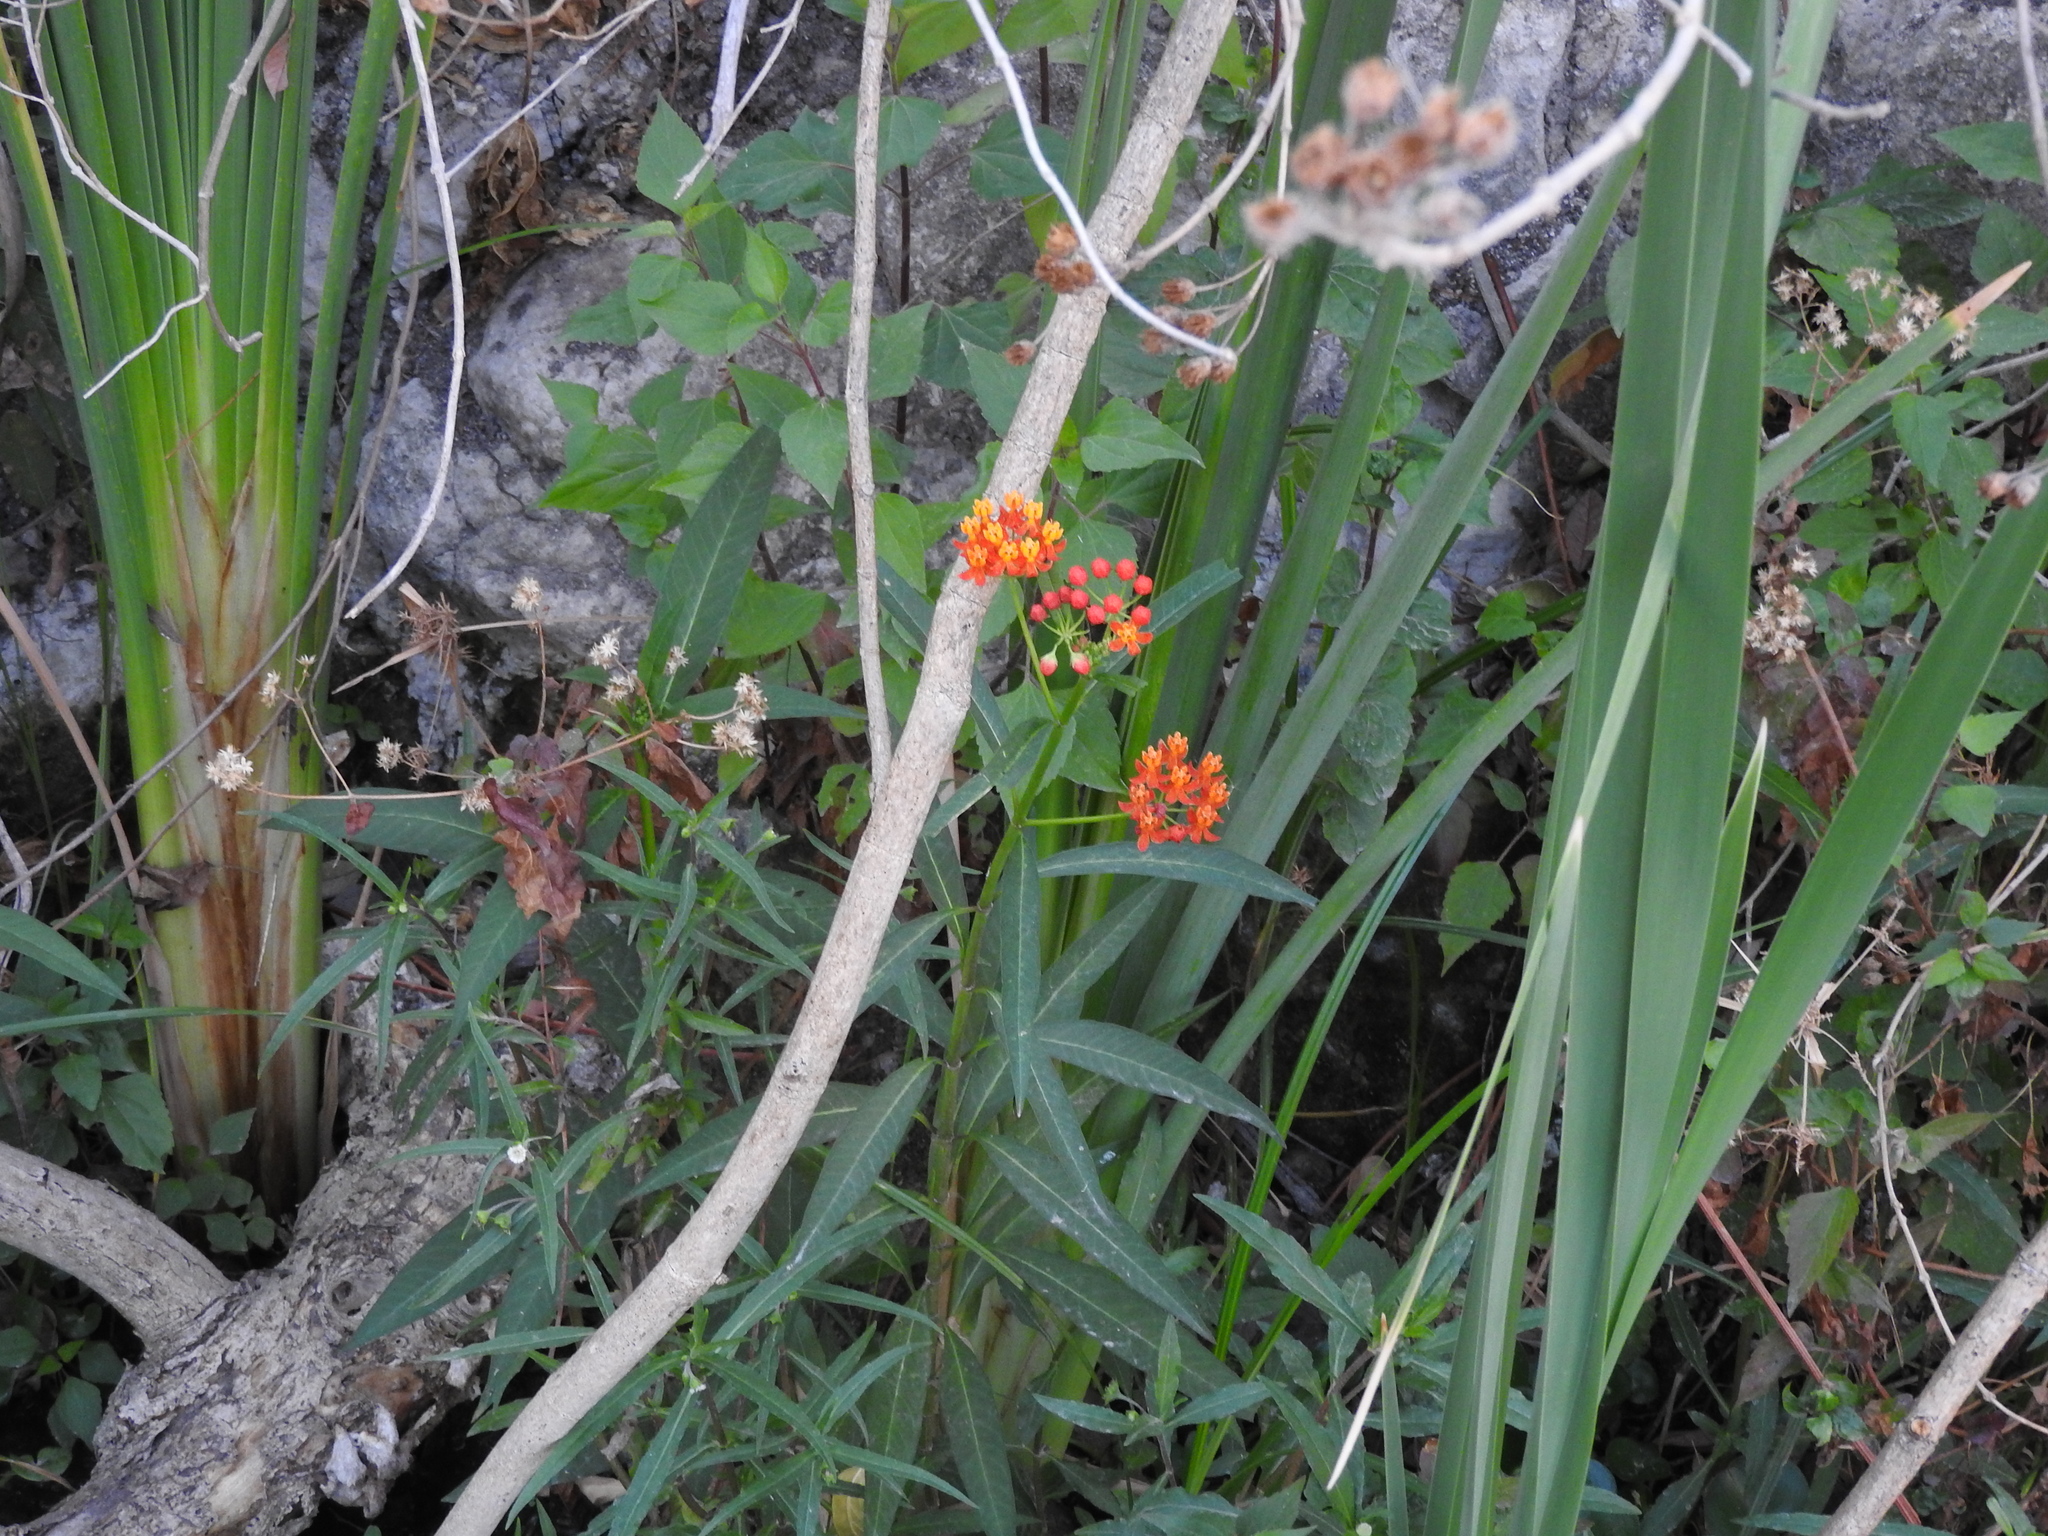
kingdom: Plantae
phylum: Tracheophyta
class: Magnoliopsida
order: Gentianales
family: Apocynaceae
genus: Asclepias
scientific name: Asclepias curassavica
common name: Bloodflower
